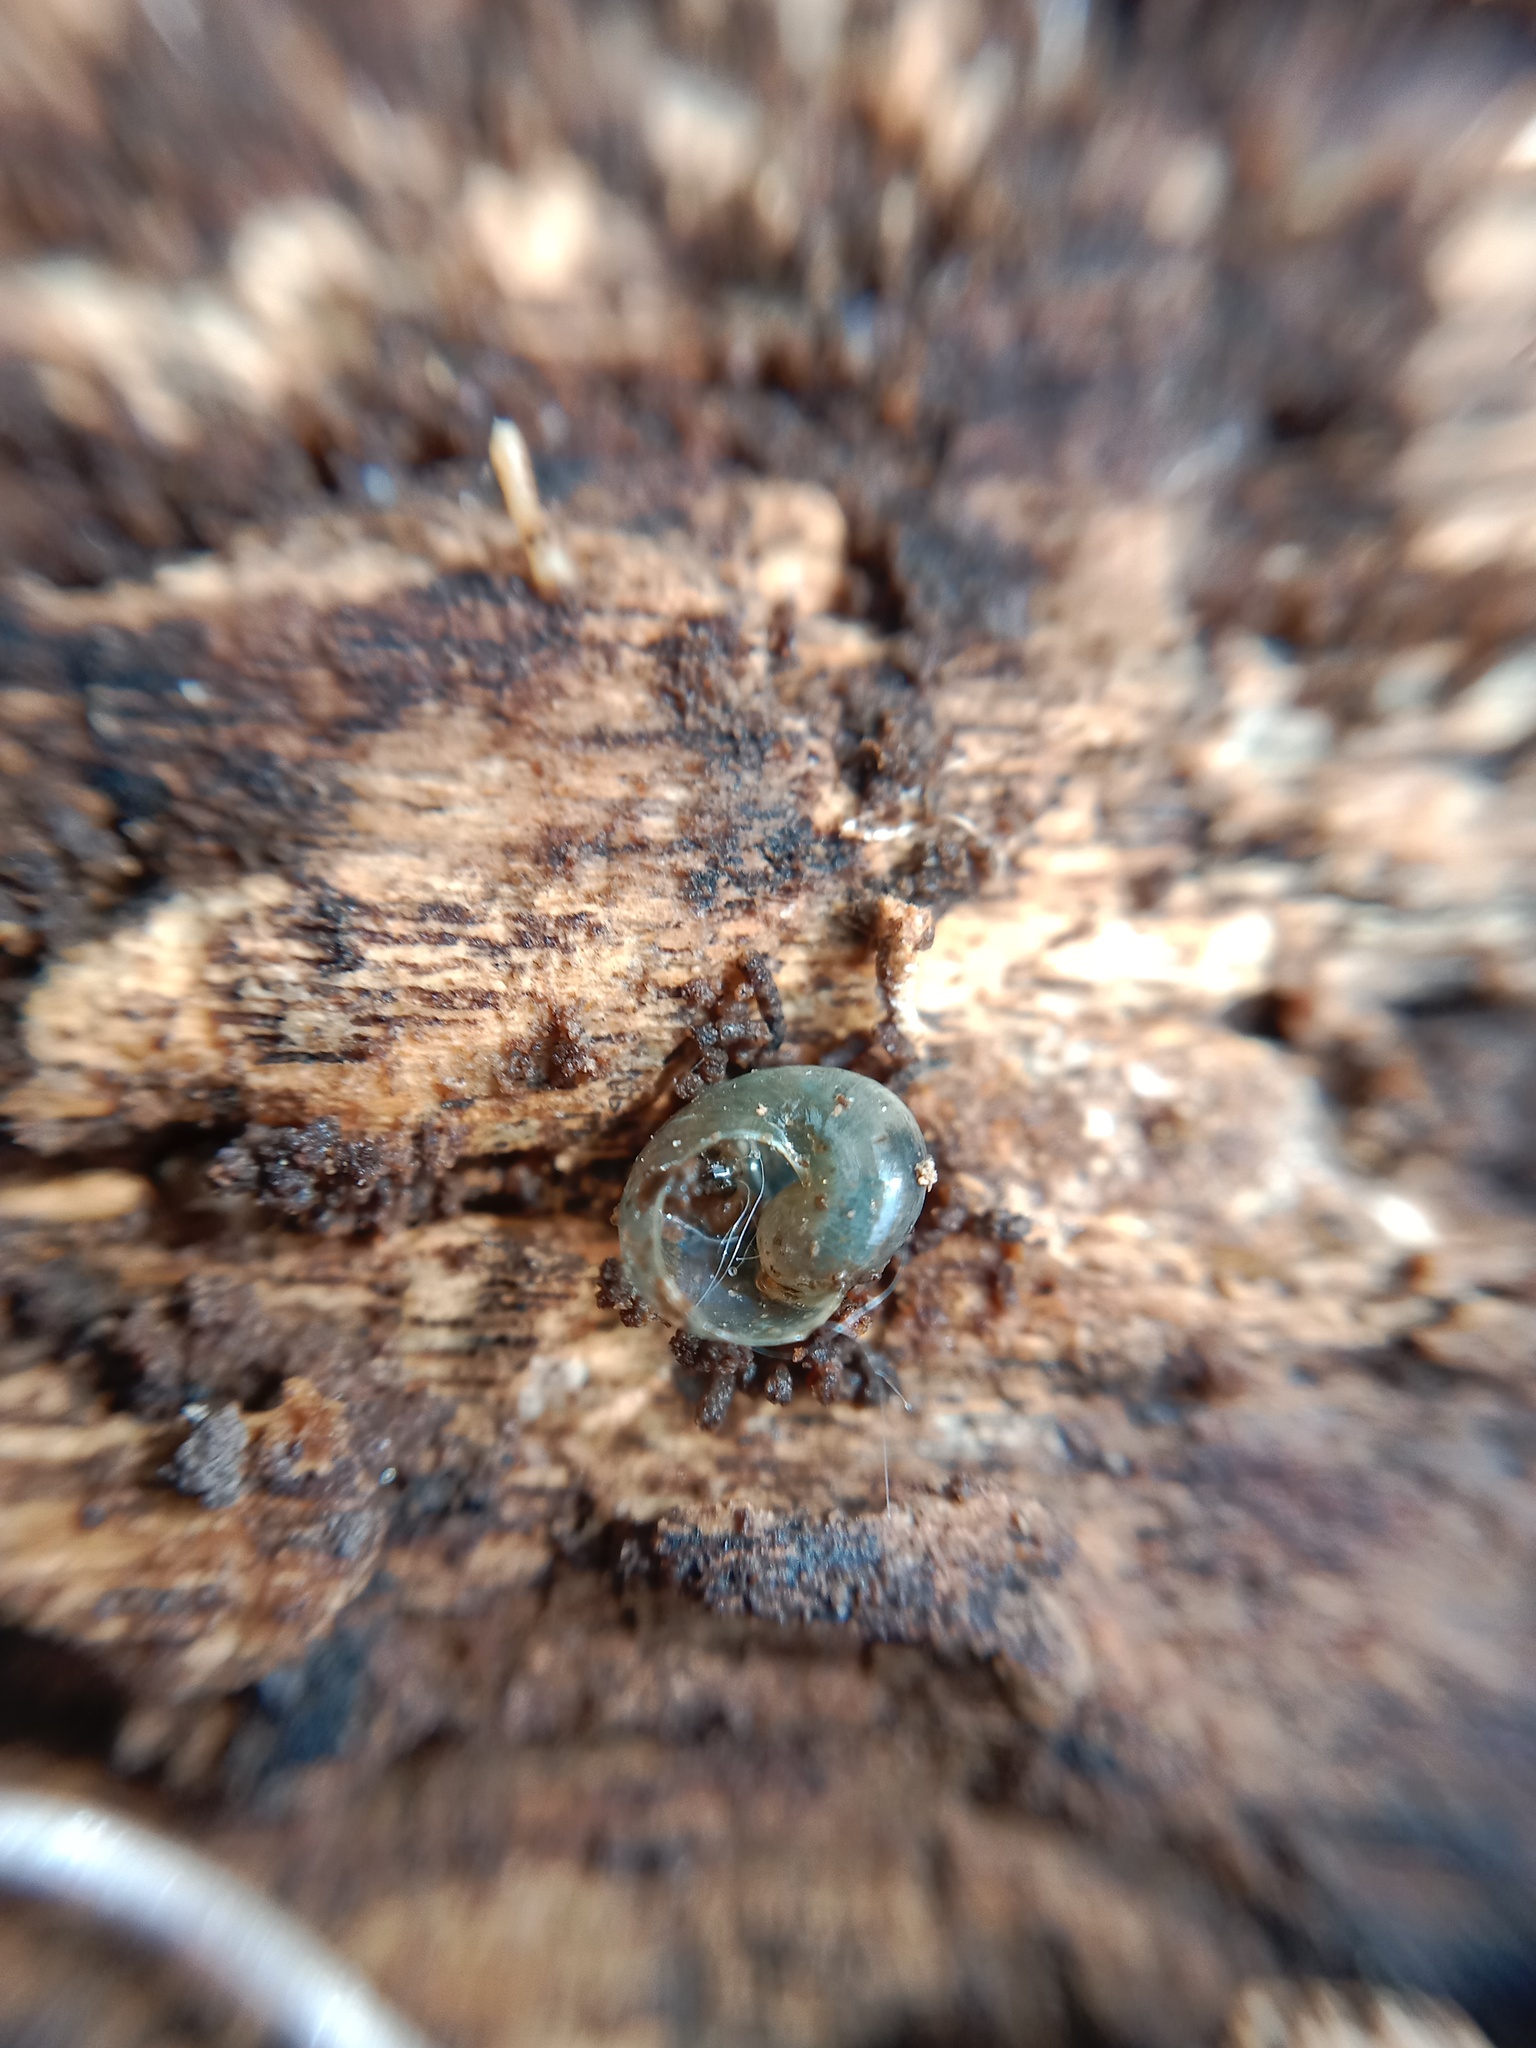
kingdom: Animalia
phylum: Mollusca
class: Gastropoda
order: Stylommatophora
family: Vitrinidae
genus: Vitrina
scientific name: Vitrina pellucida
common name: Pellucid glass snail
